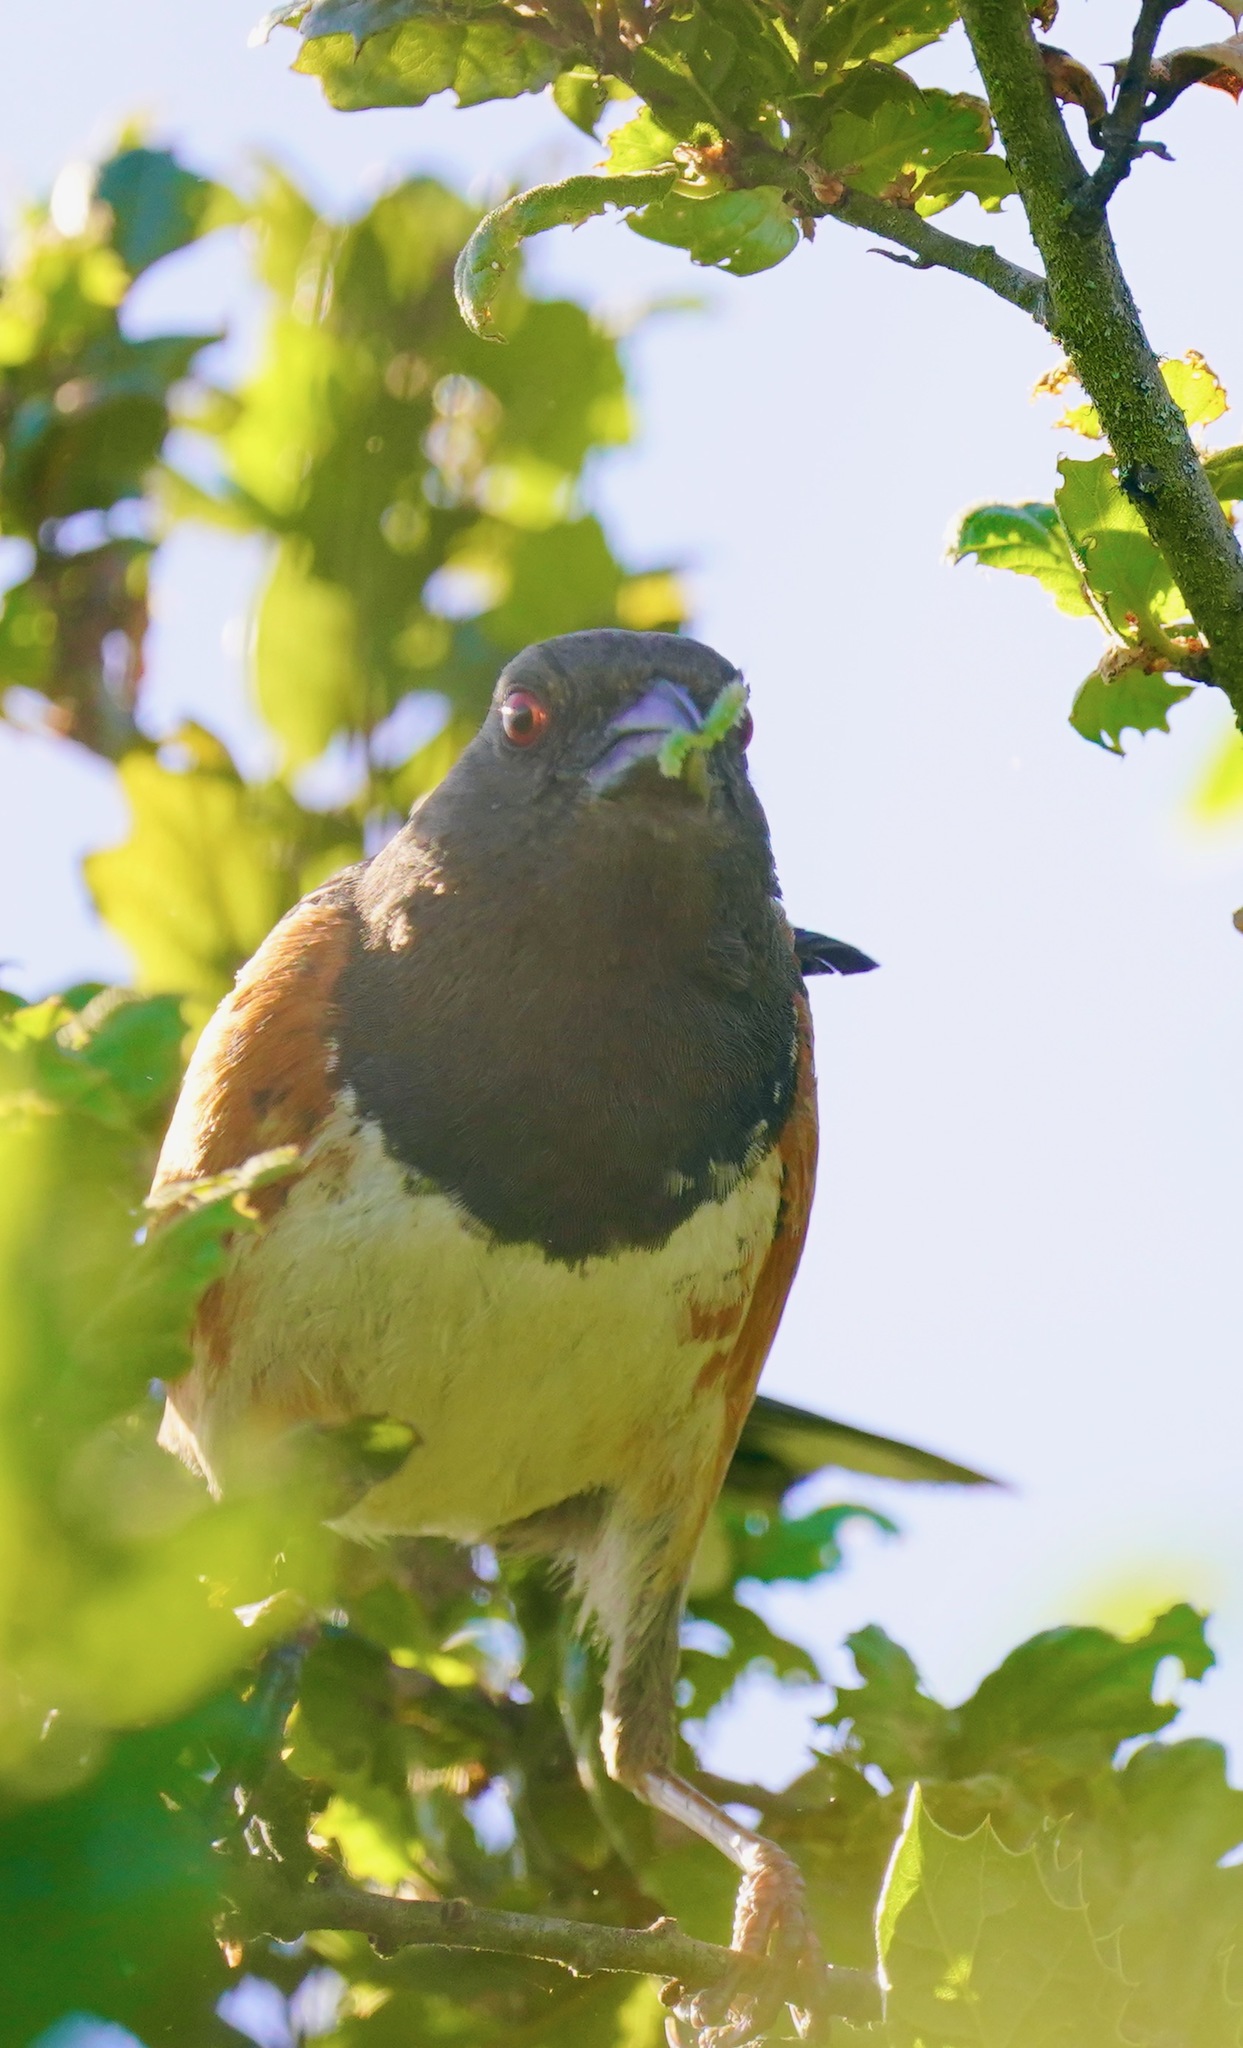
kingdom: Animalia
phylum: Chordata
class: Aves
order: Passeriformes
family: Passerellidae
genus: Pipilo
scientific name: Pipilo maculatus
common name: Spotted towhee
